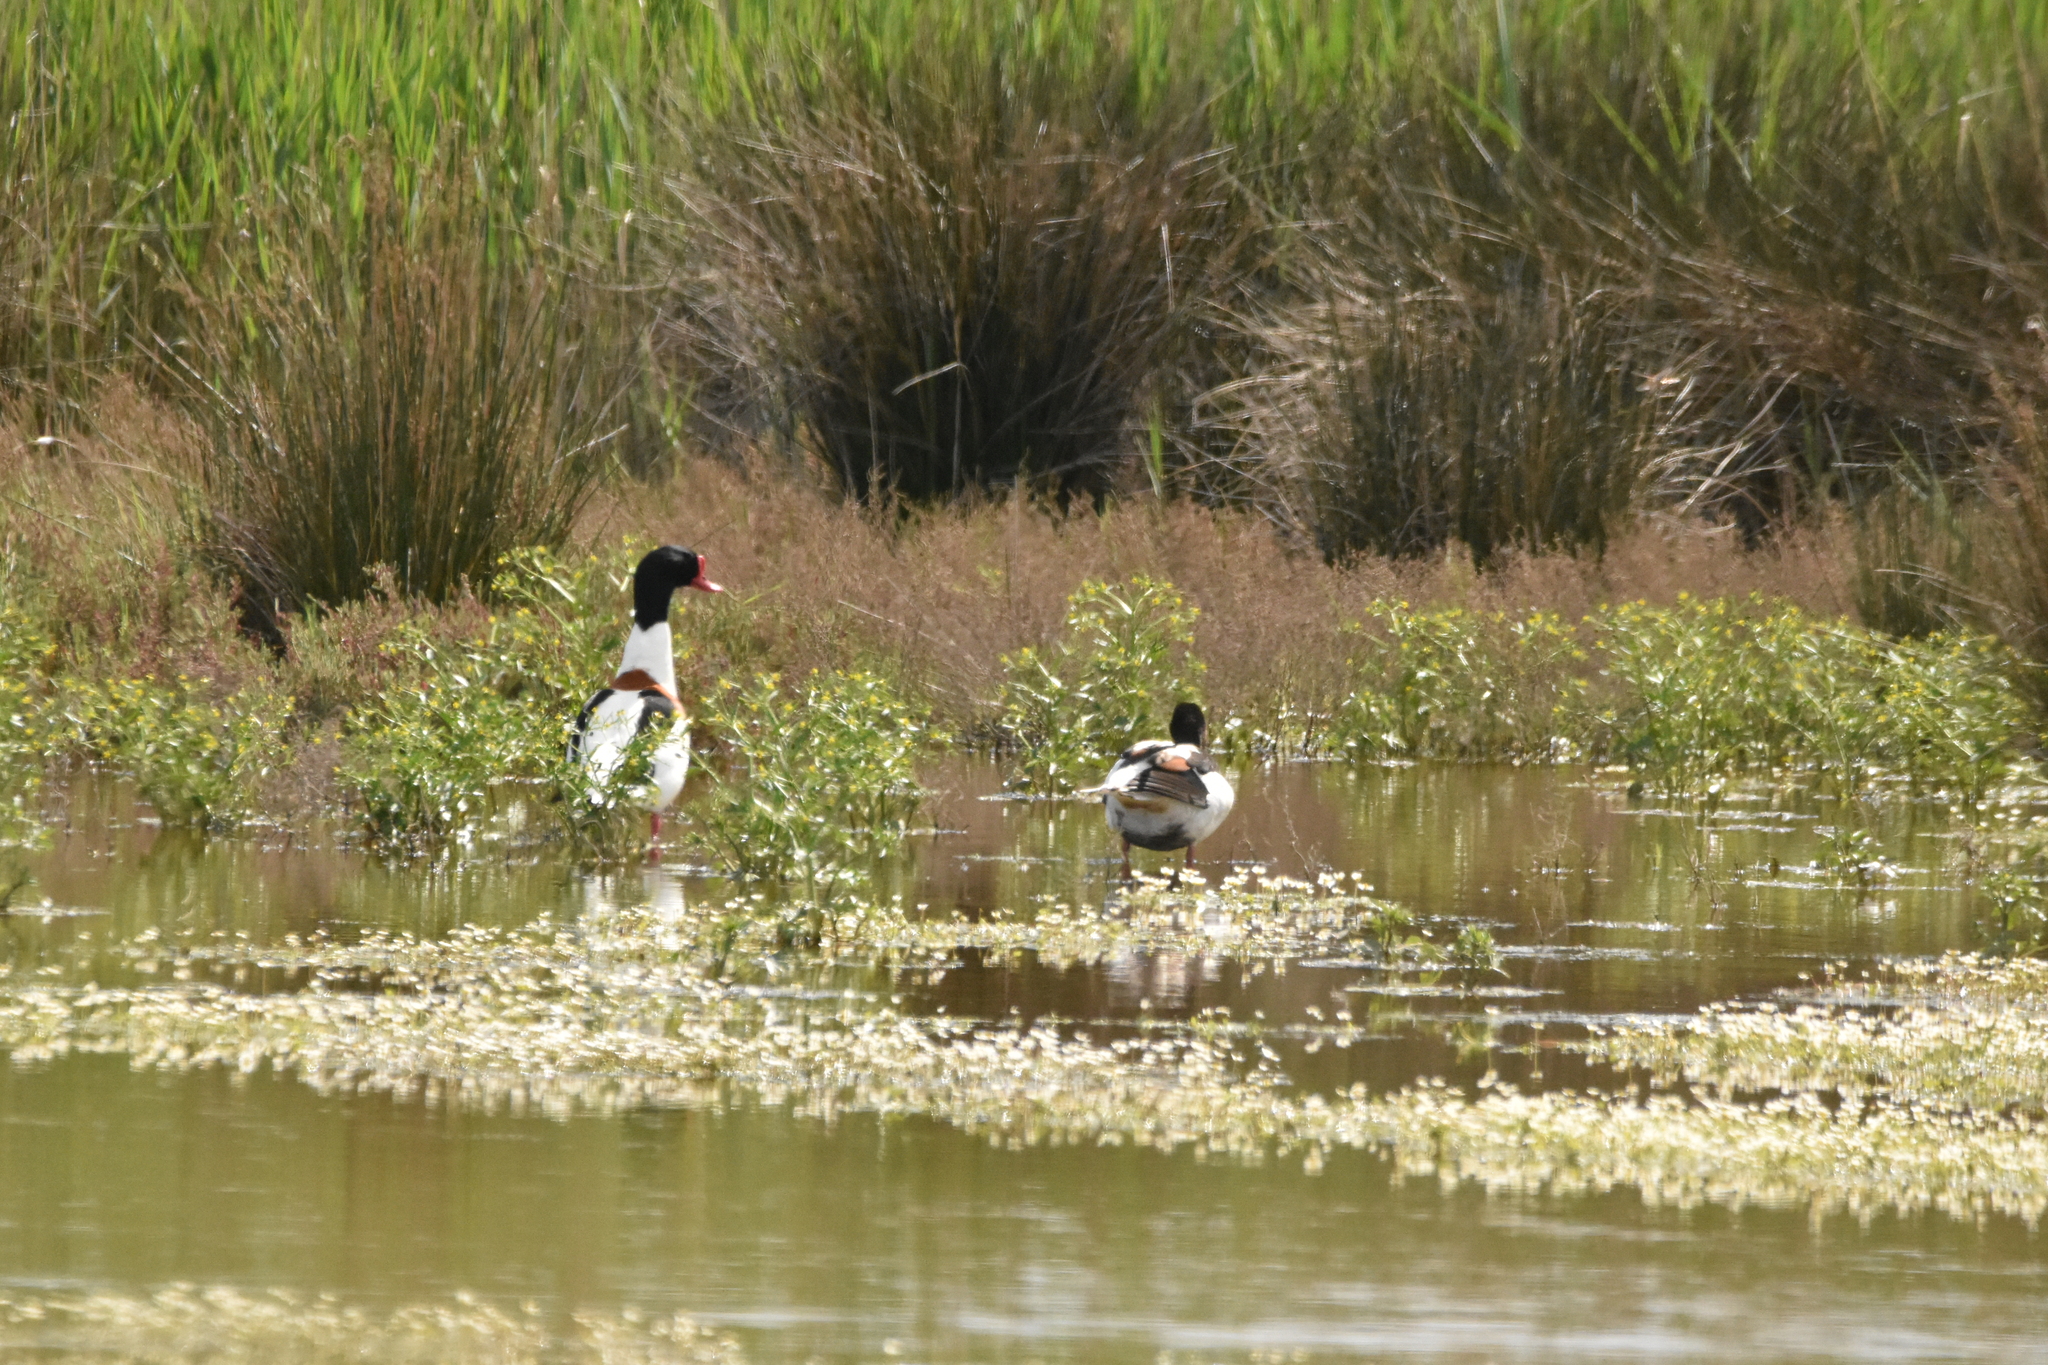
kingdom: Animalia
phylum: Chordata
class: Aves
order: Anseriformes
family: Anatidae
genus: Tadorna
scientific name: Tadorna tadorna
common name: Common shelduck
